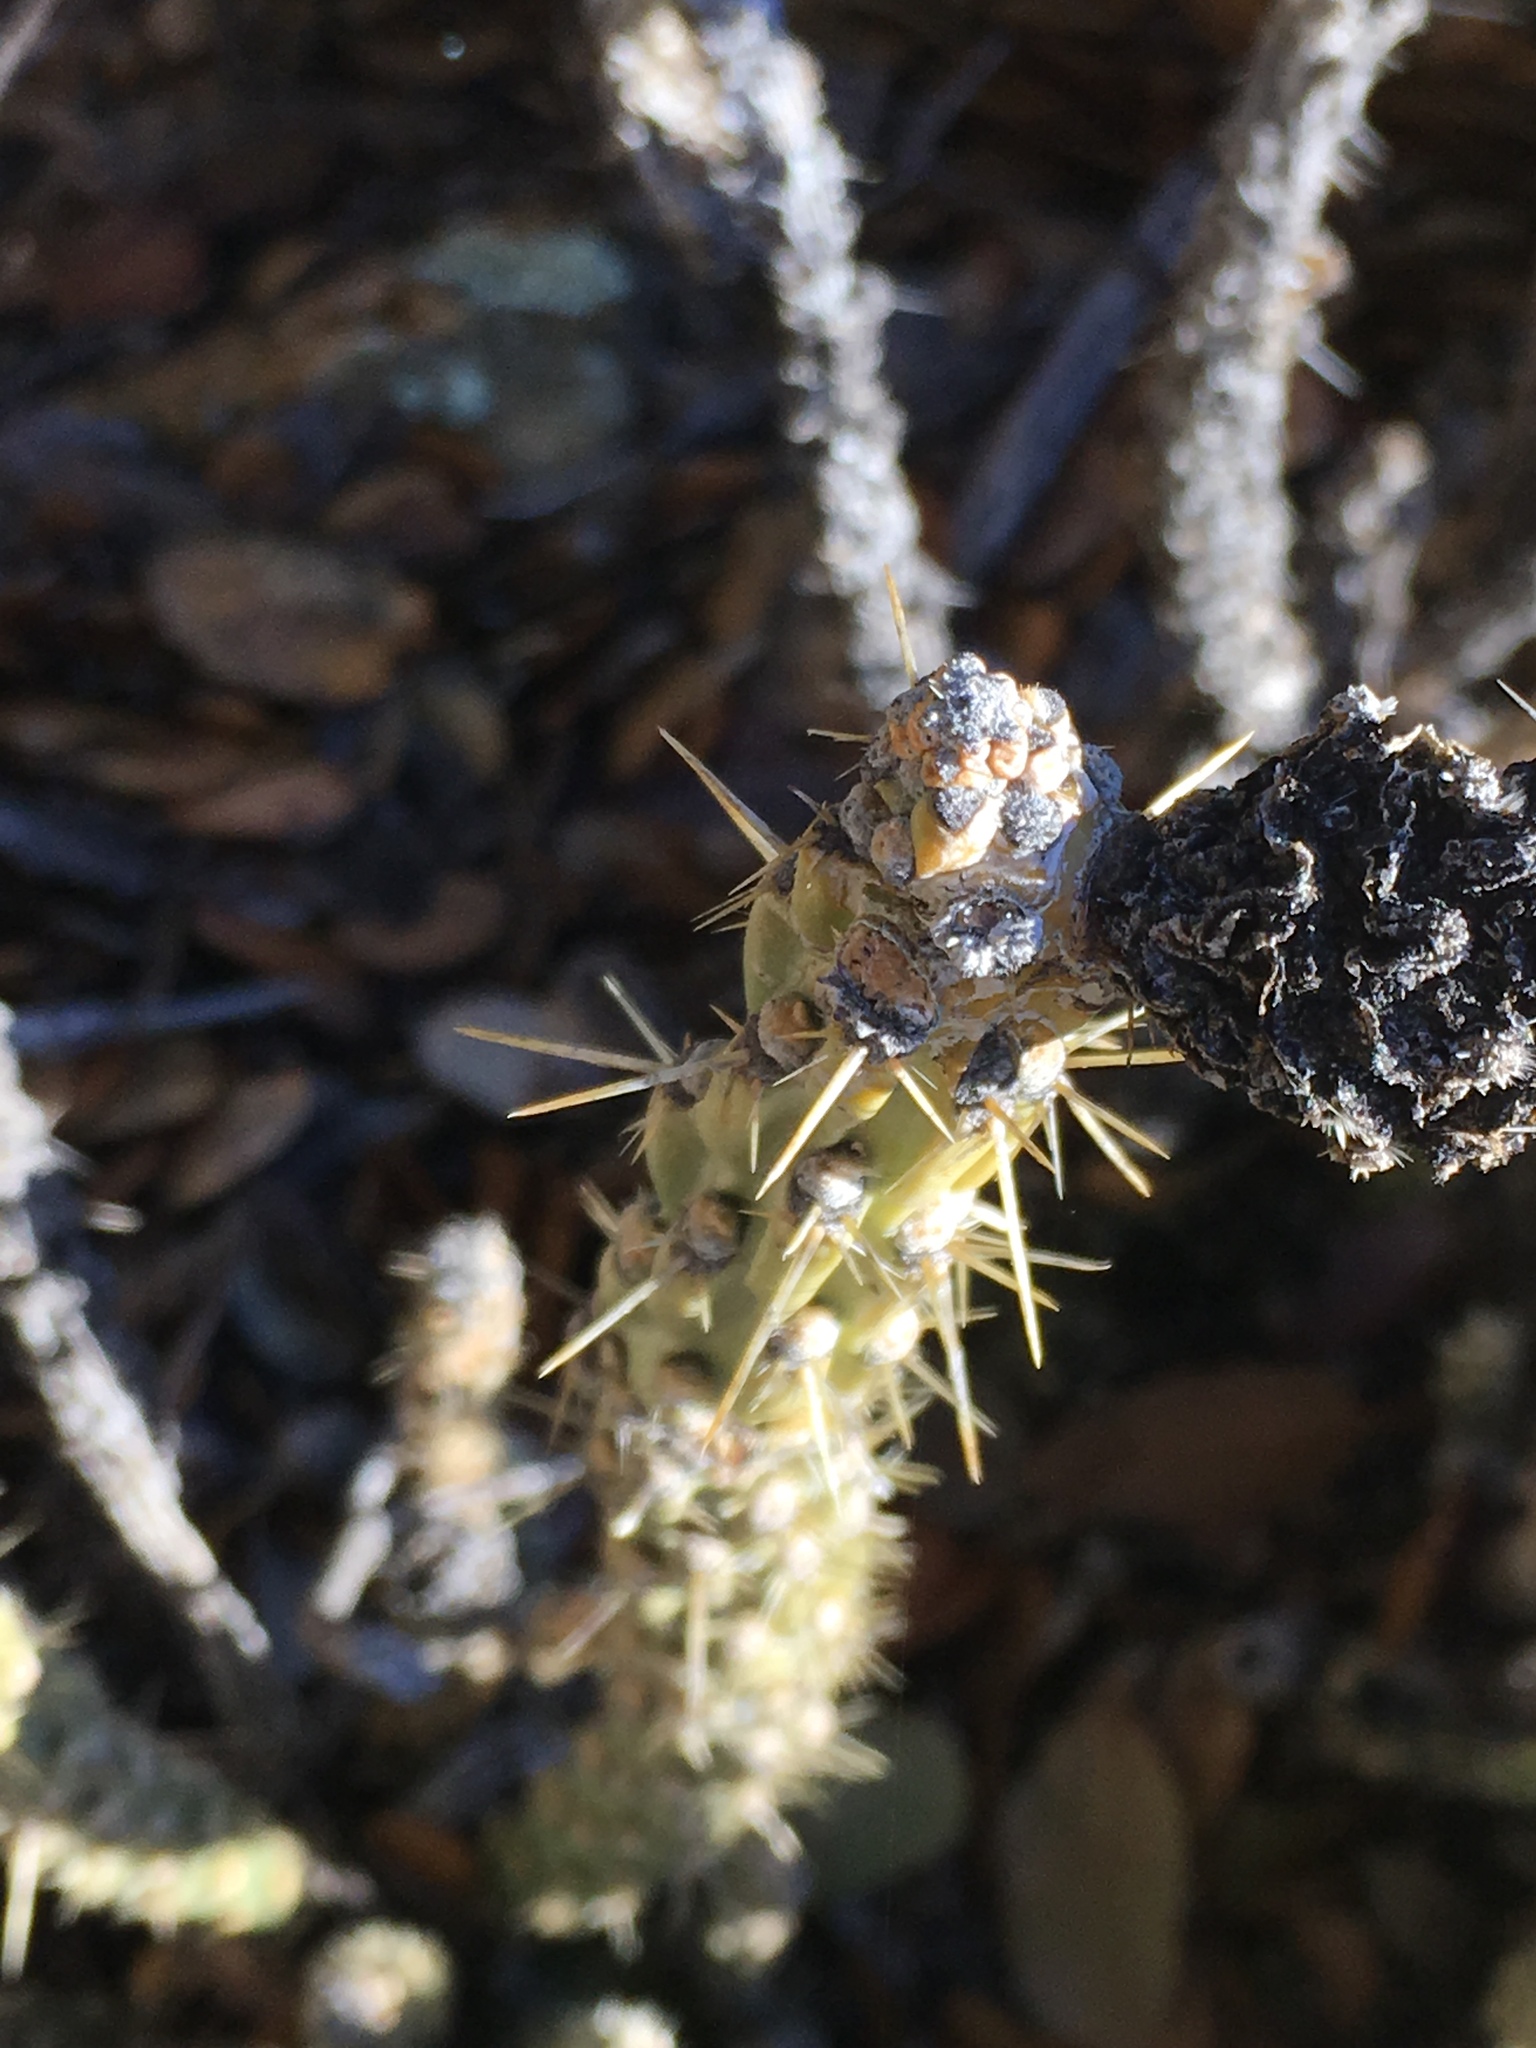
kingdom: Plantae
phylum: Tracheophyta
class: Magnoliopsida
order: Caryophyllales
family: Cactaceae
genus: Cylindropuntia
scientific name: Cylindropuntia bernardina
